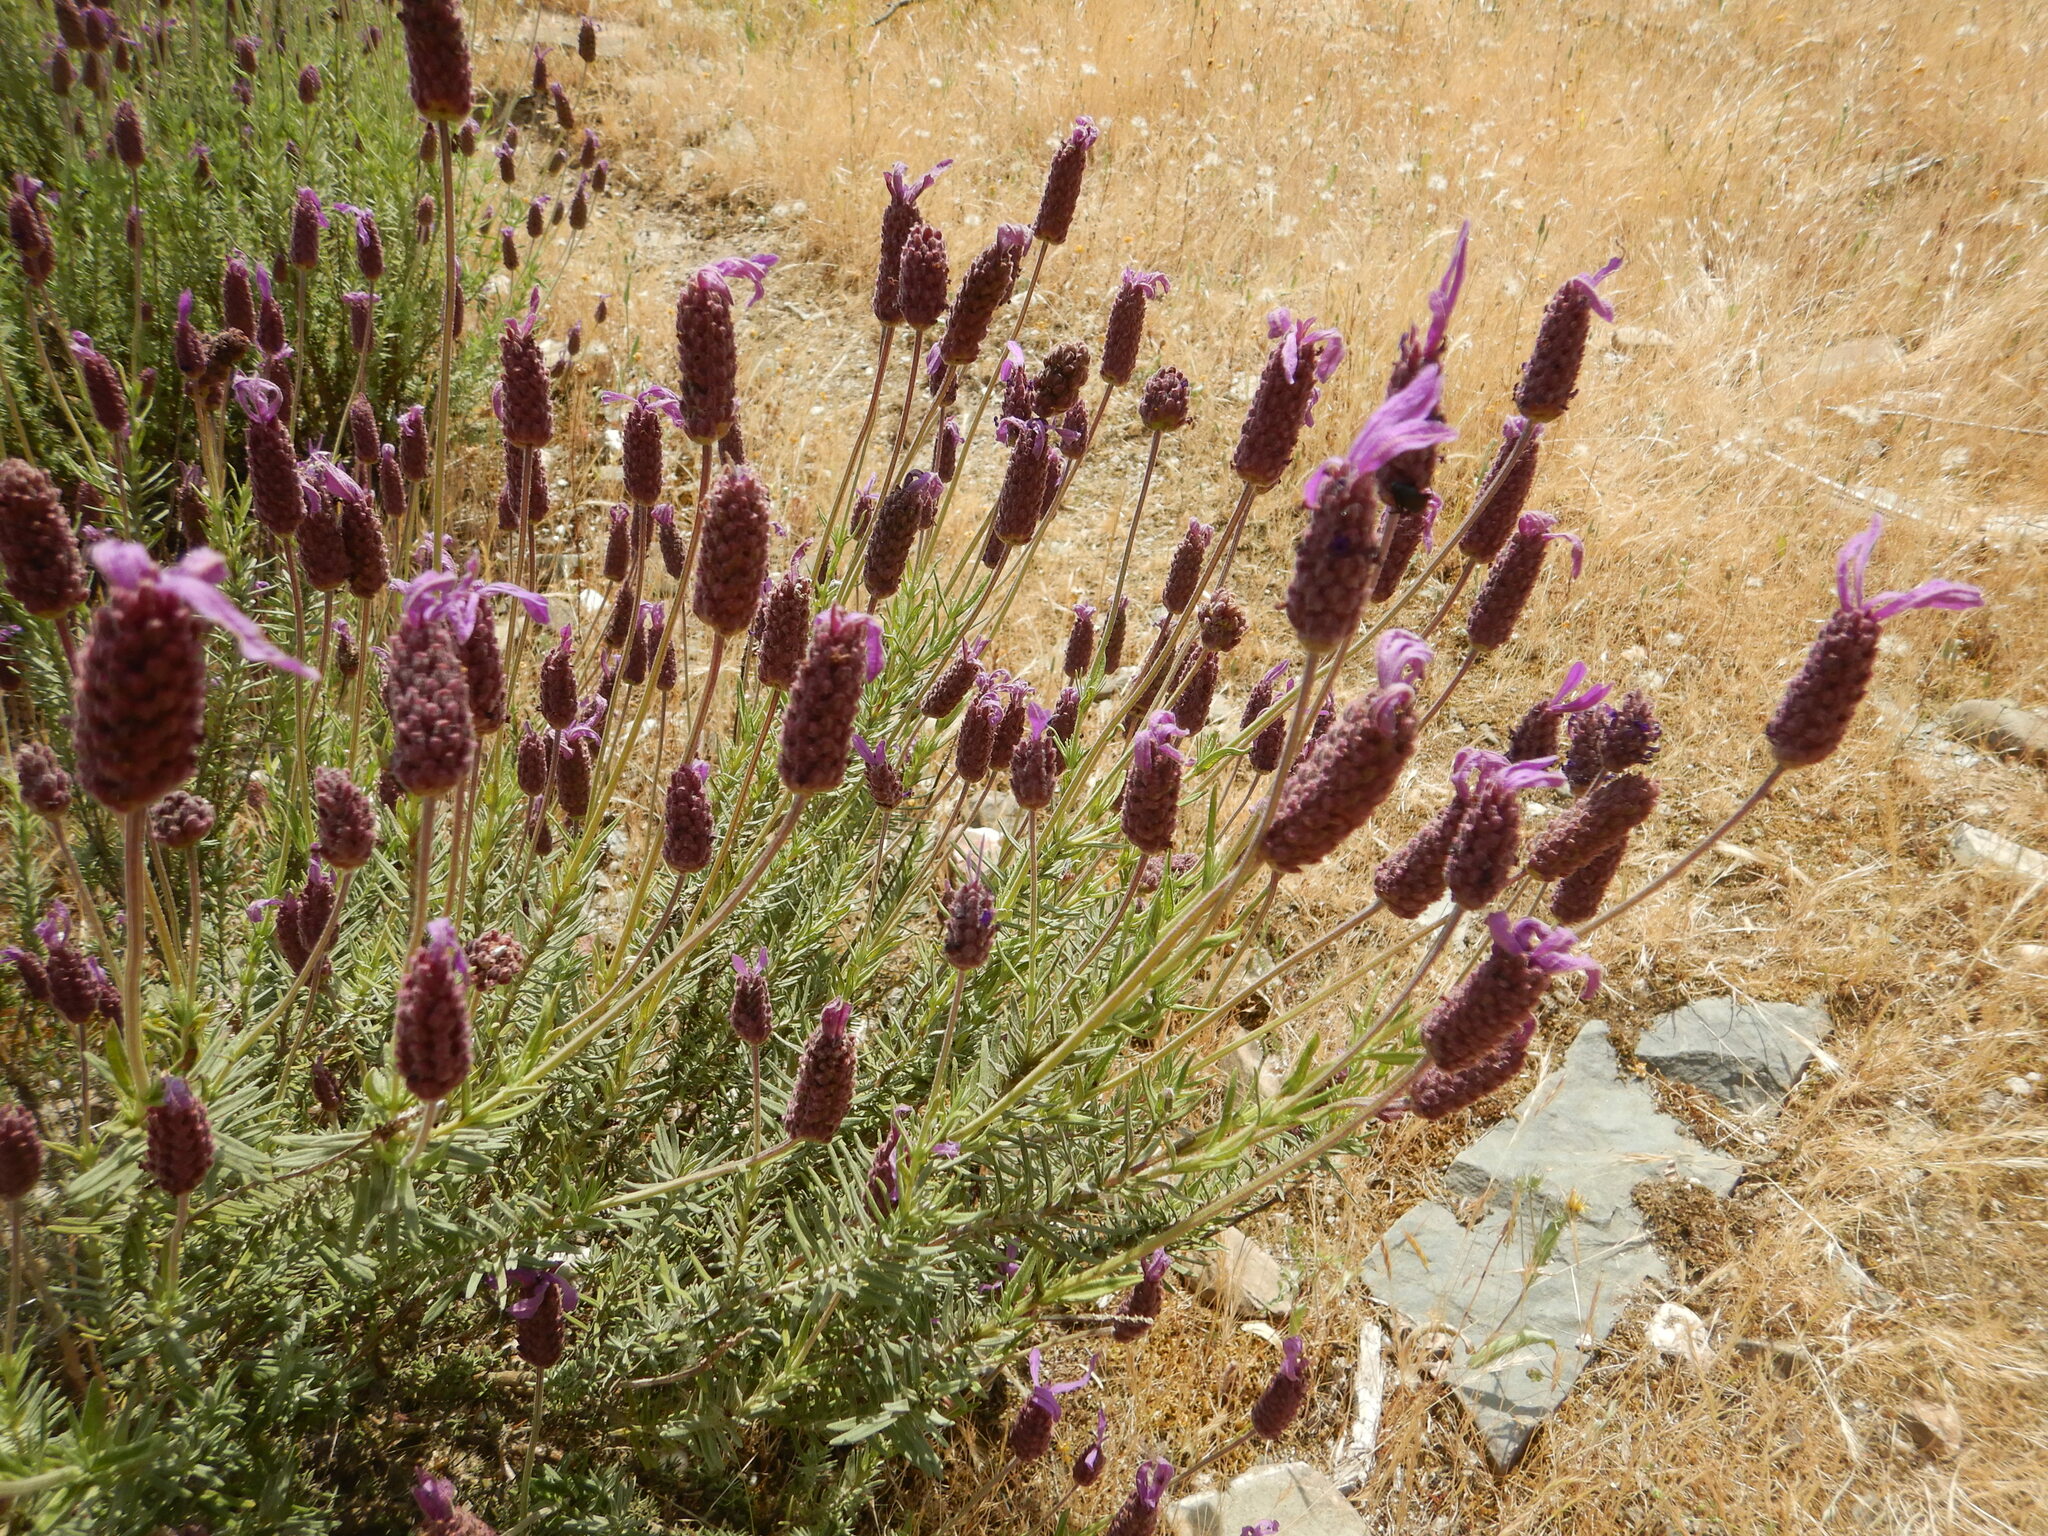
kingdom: Plantae
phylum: Tracheophyta
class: Magnoliopsida
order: Lamiales
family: Lamiaceae
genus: Lavandula
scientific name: Lavandula pedunculata
